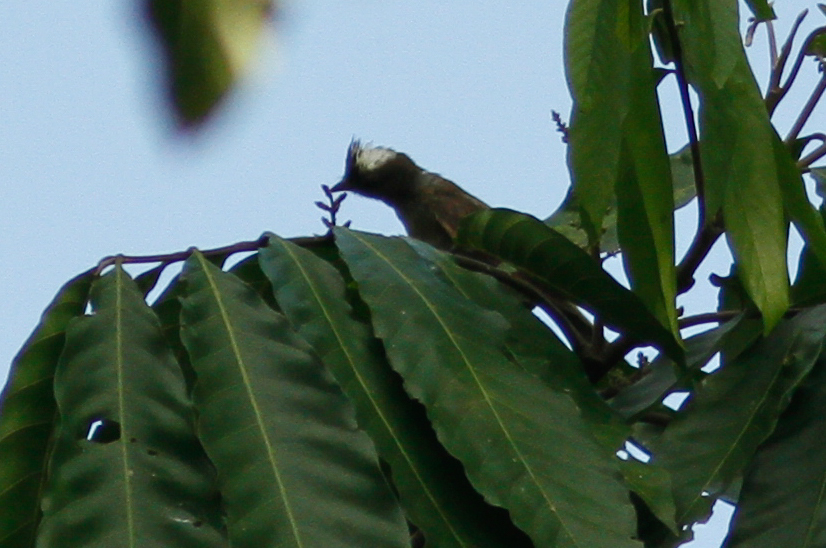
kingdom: Animalia
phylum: Chordata
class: Aves
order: Passeriformes
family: Tyrannidae
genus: Elaenia
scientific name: Elaenia gigas
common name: Mottle-backed elaenia
